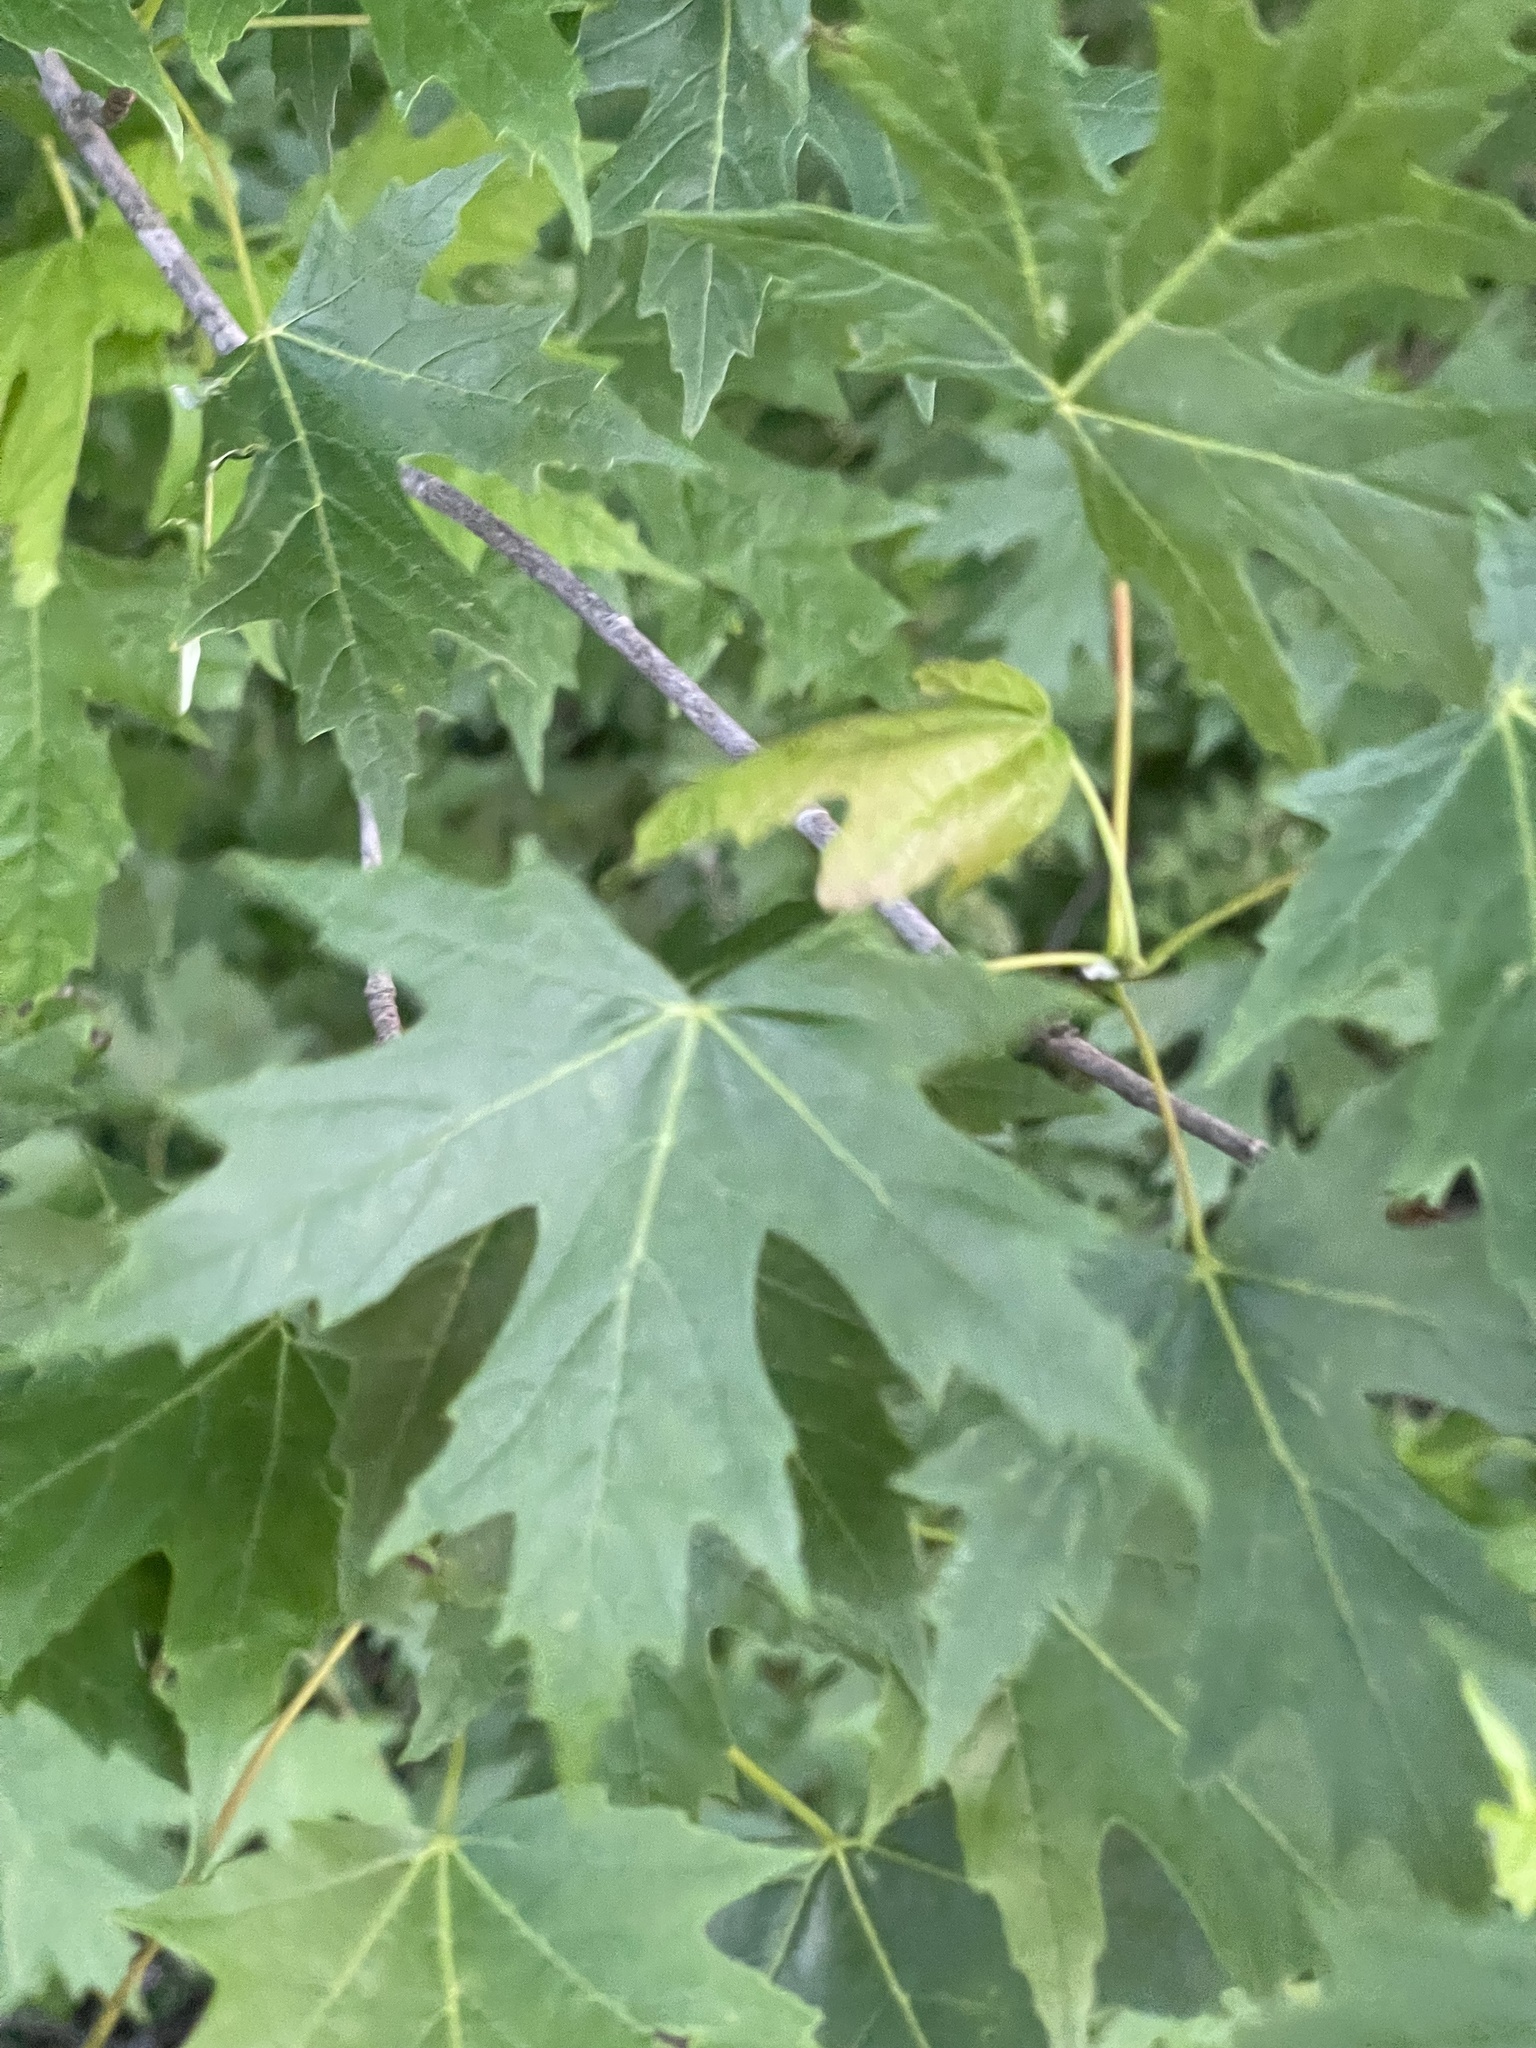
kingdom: Plantae
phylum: Tracheophyta
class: Magnoliopsida
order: Sapindales
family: Sapindaceae
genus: Acer
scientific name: Acer saccharinum
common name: Silver maple
